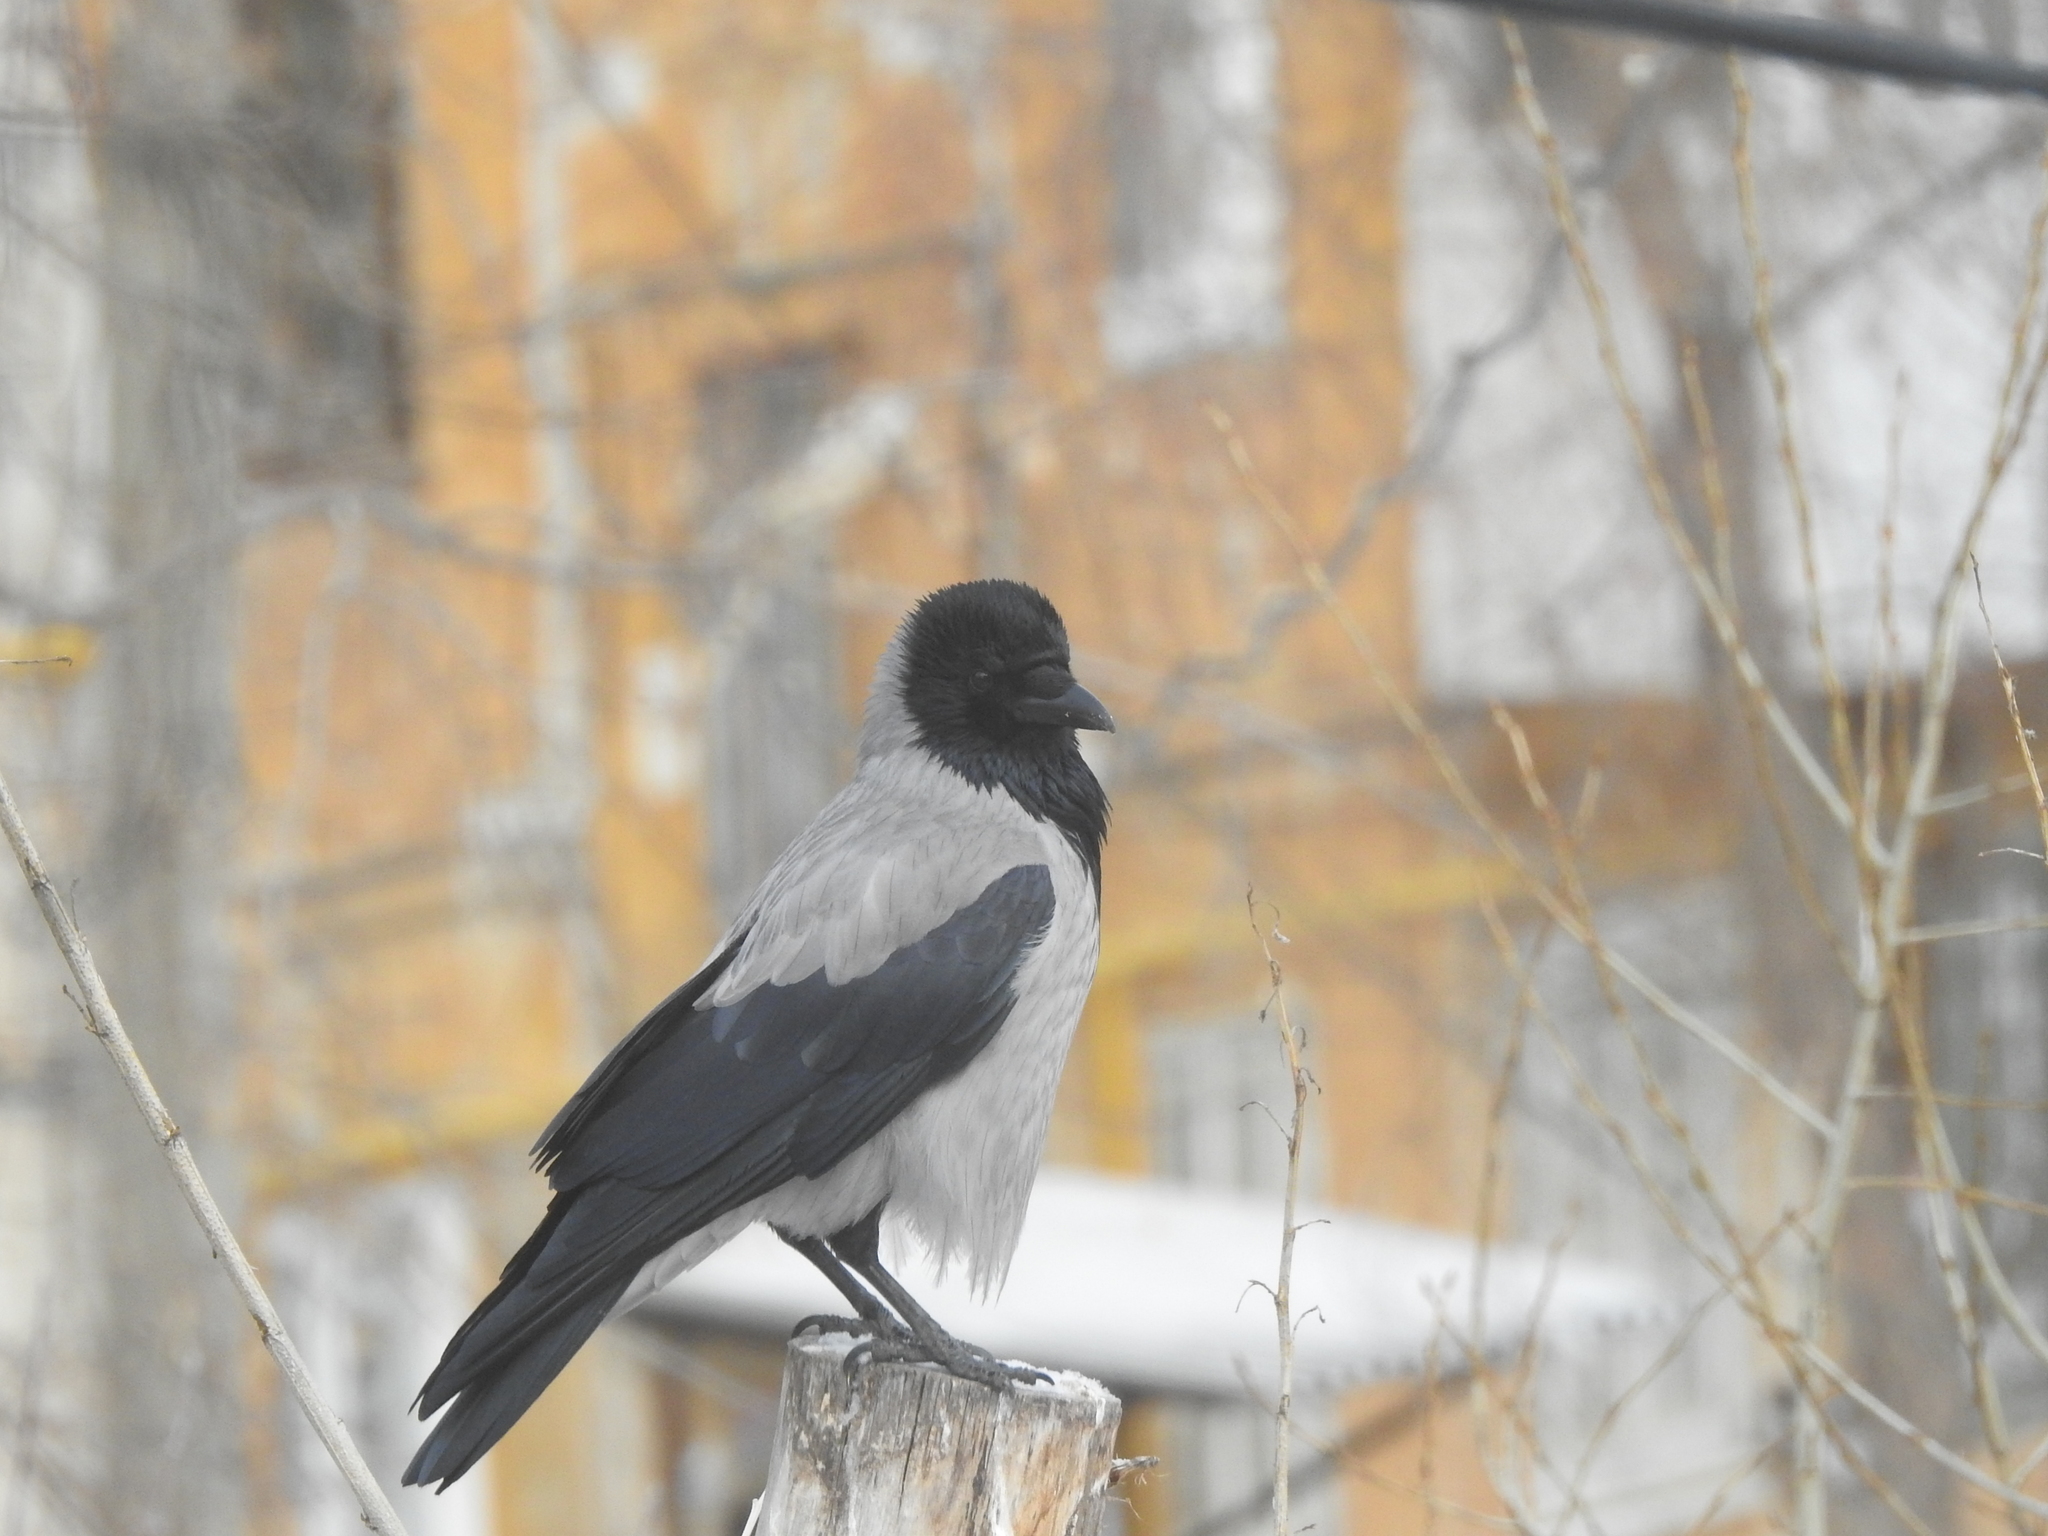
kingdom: Animalia
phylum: Chordata
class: Aves
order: Passeriformes
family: Corvidae
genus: Corvus
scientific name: Corvus cornix
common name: Hooded crow
